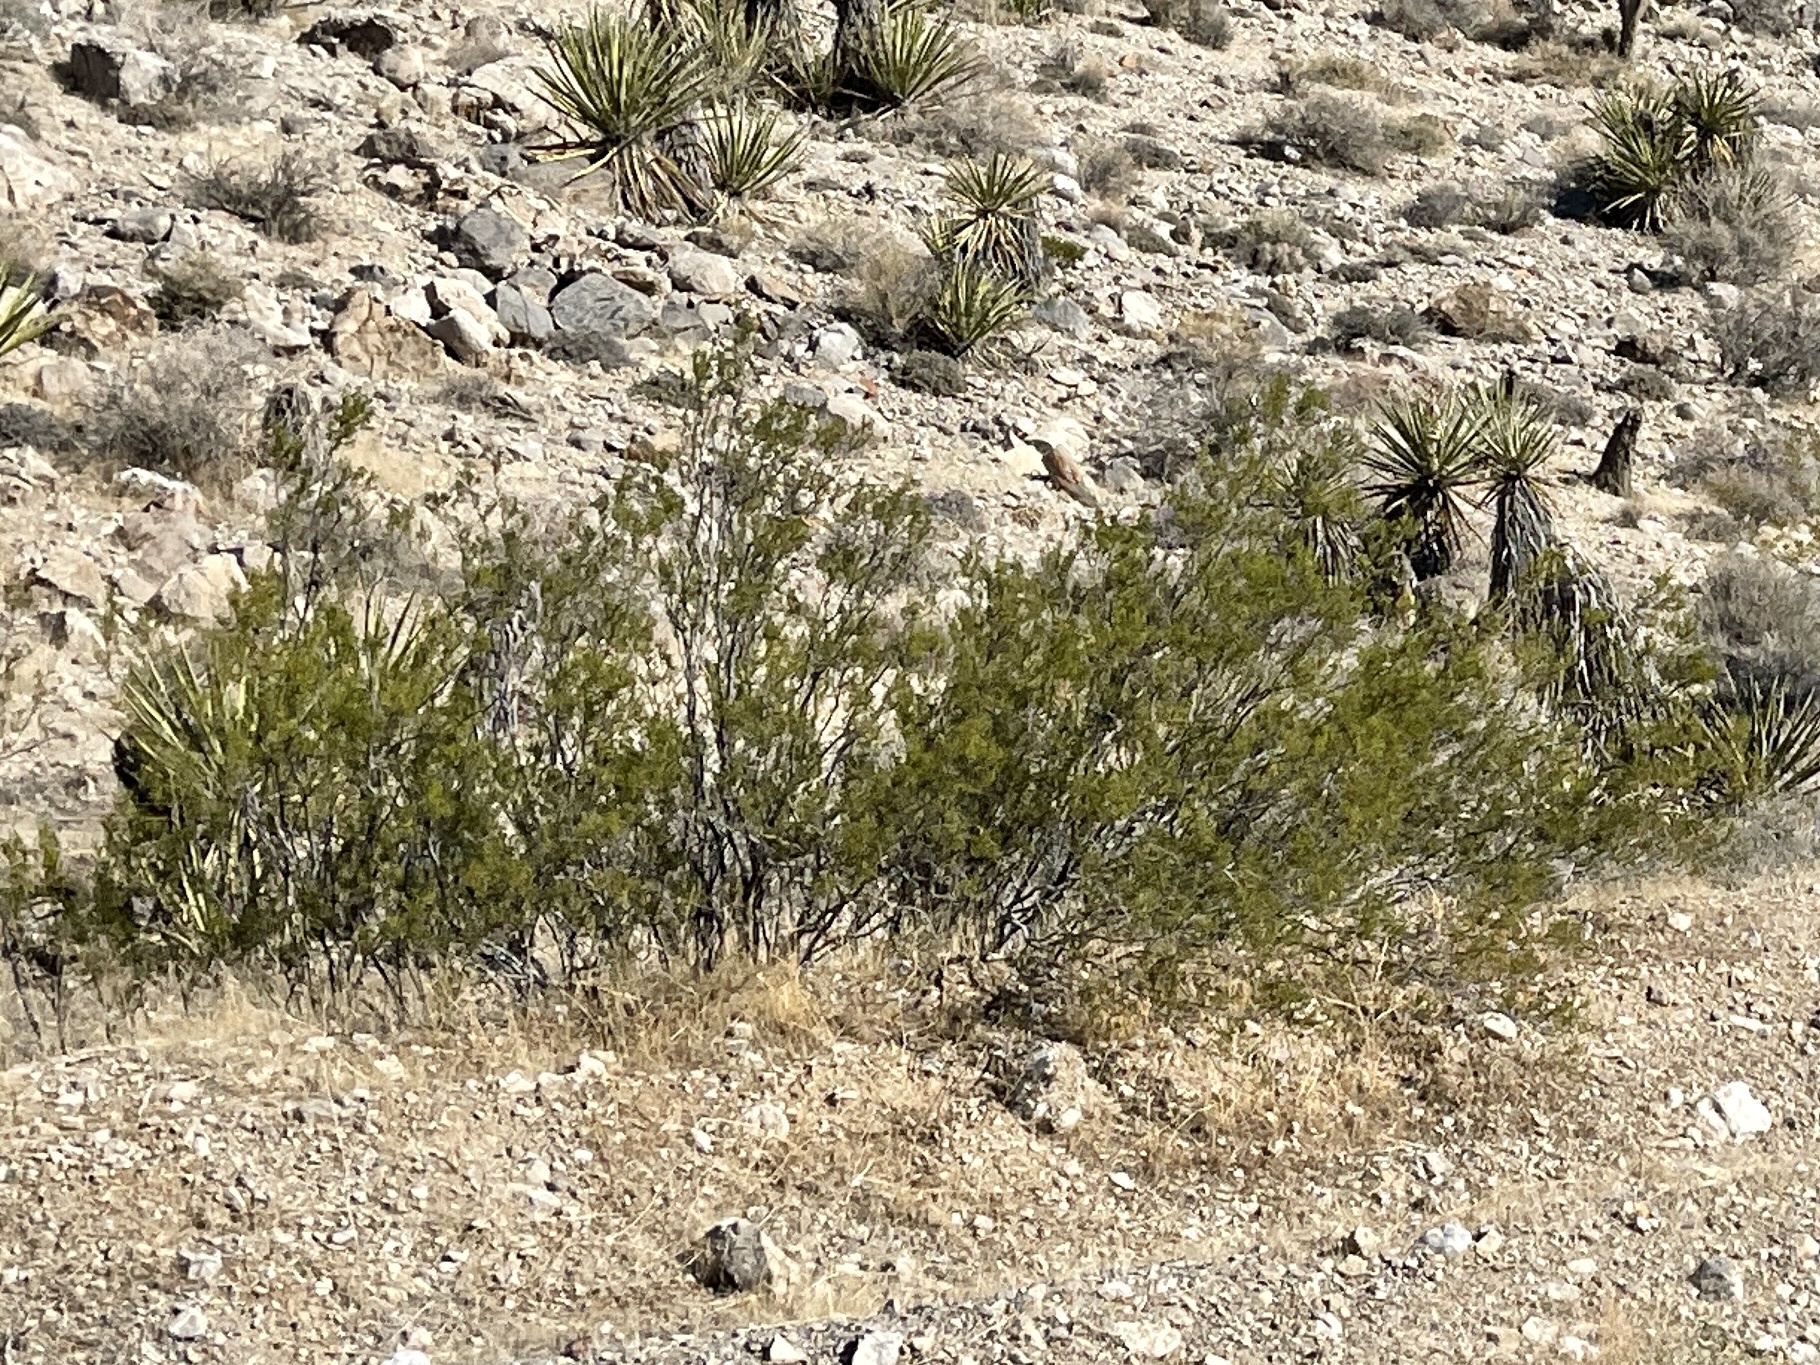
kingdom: Plantae
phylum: Tracheophyta
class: Magnoliopsida
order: Zygophyllales
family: Zygophyllaceae
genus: Larrea
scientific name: Larrea tridentata
